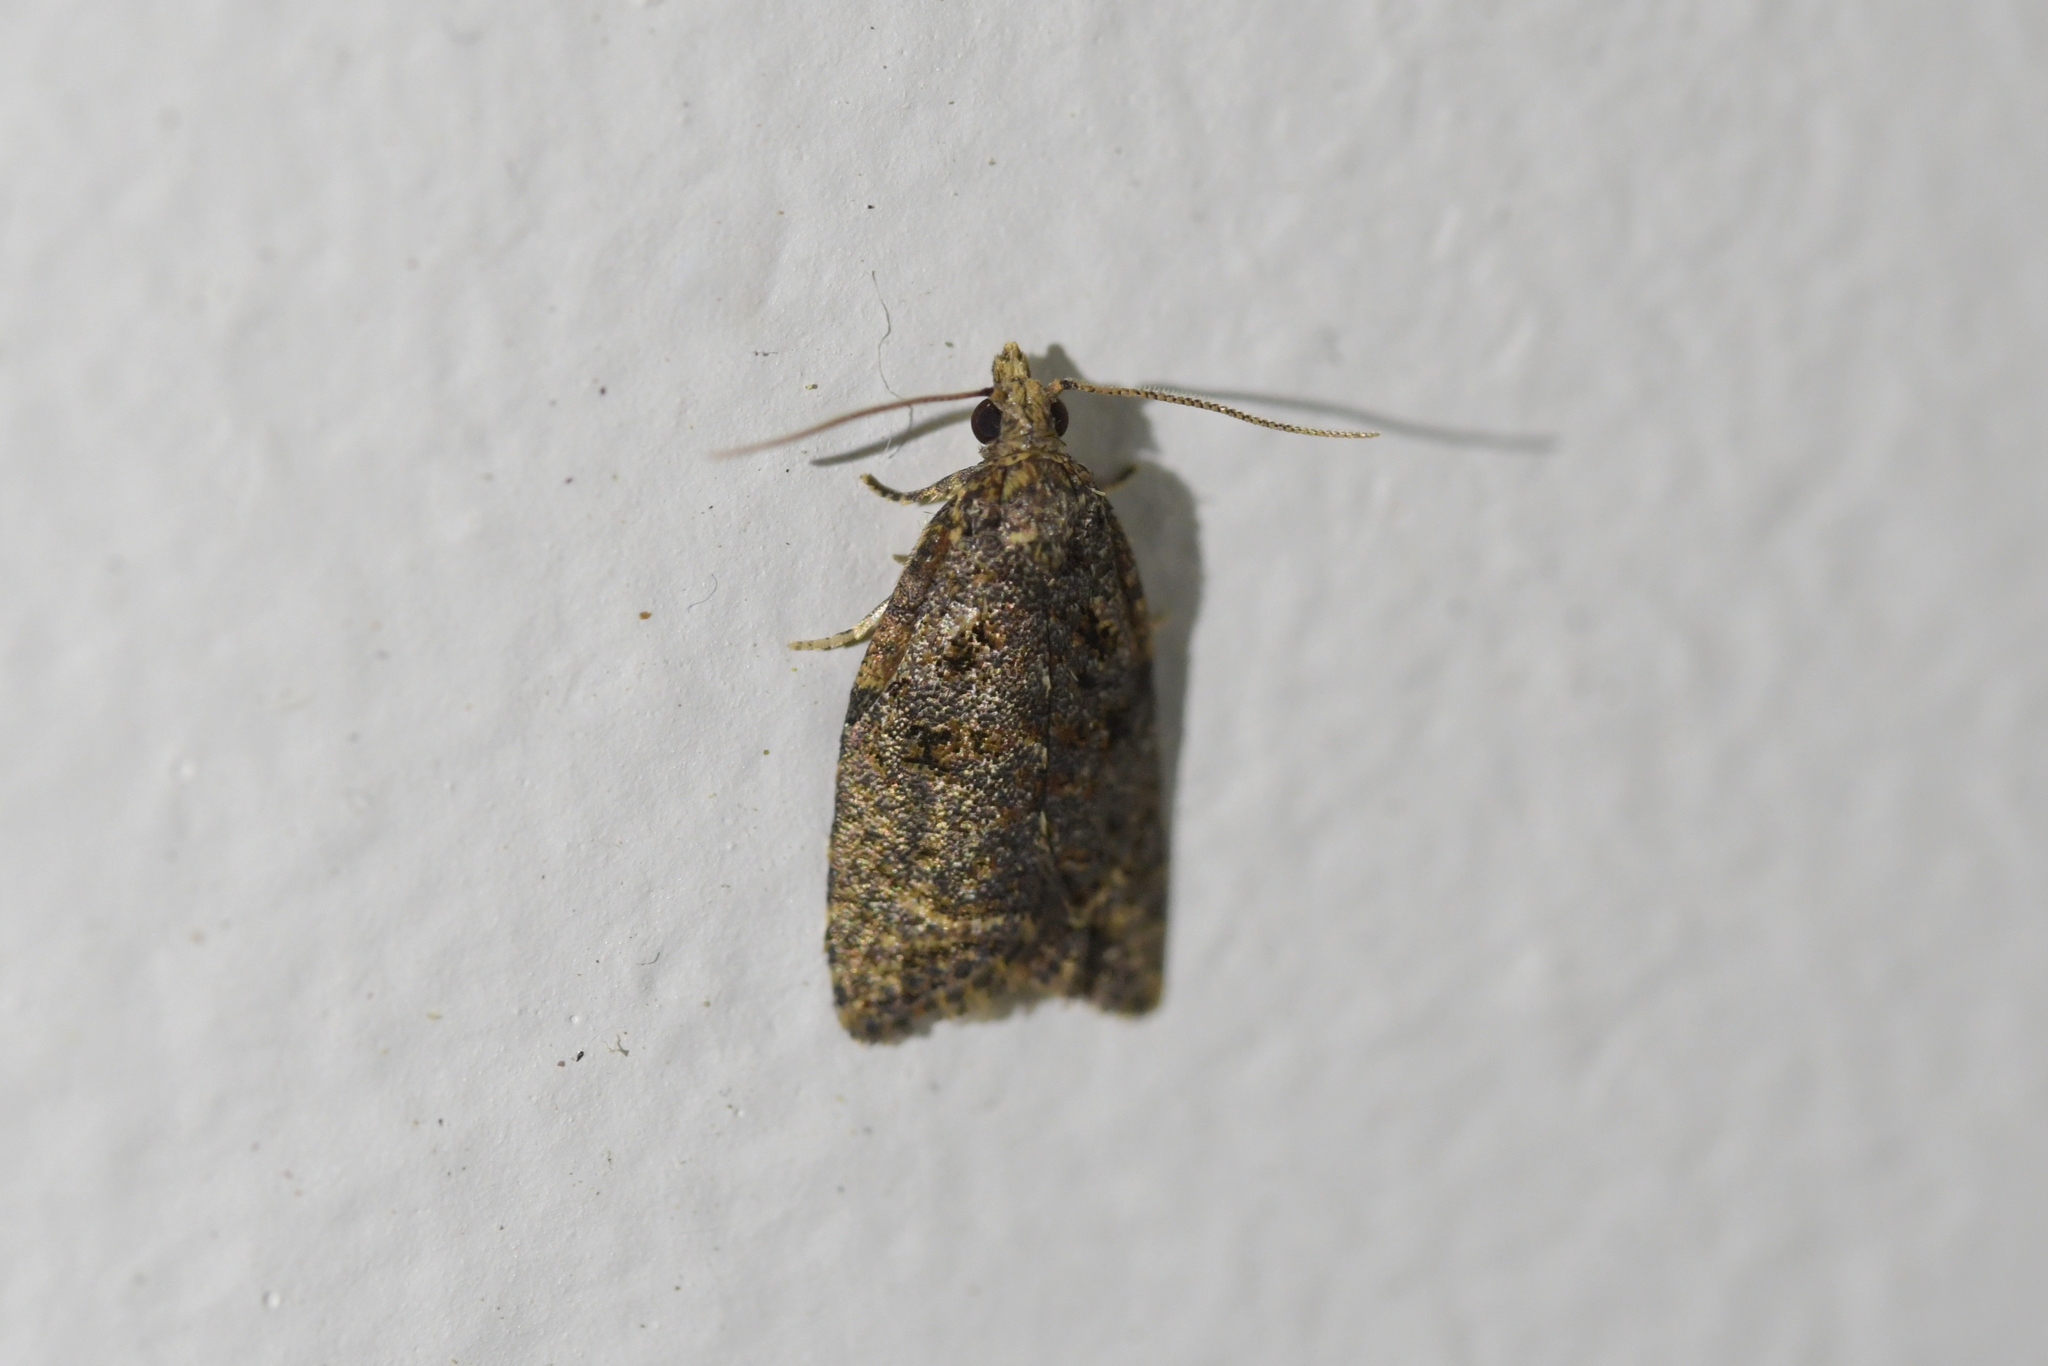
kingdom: Animalia
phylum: Arthropoda
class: Insecta
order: Lepidoptera
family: Tortricidae
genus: Capua
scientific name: Capua intractana
